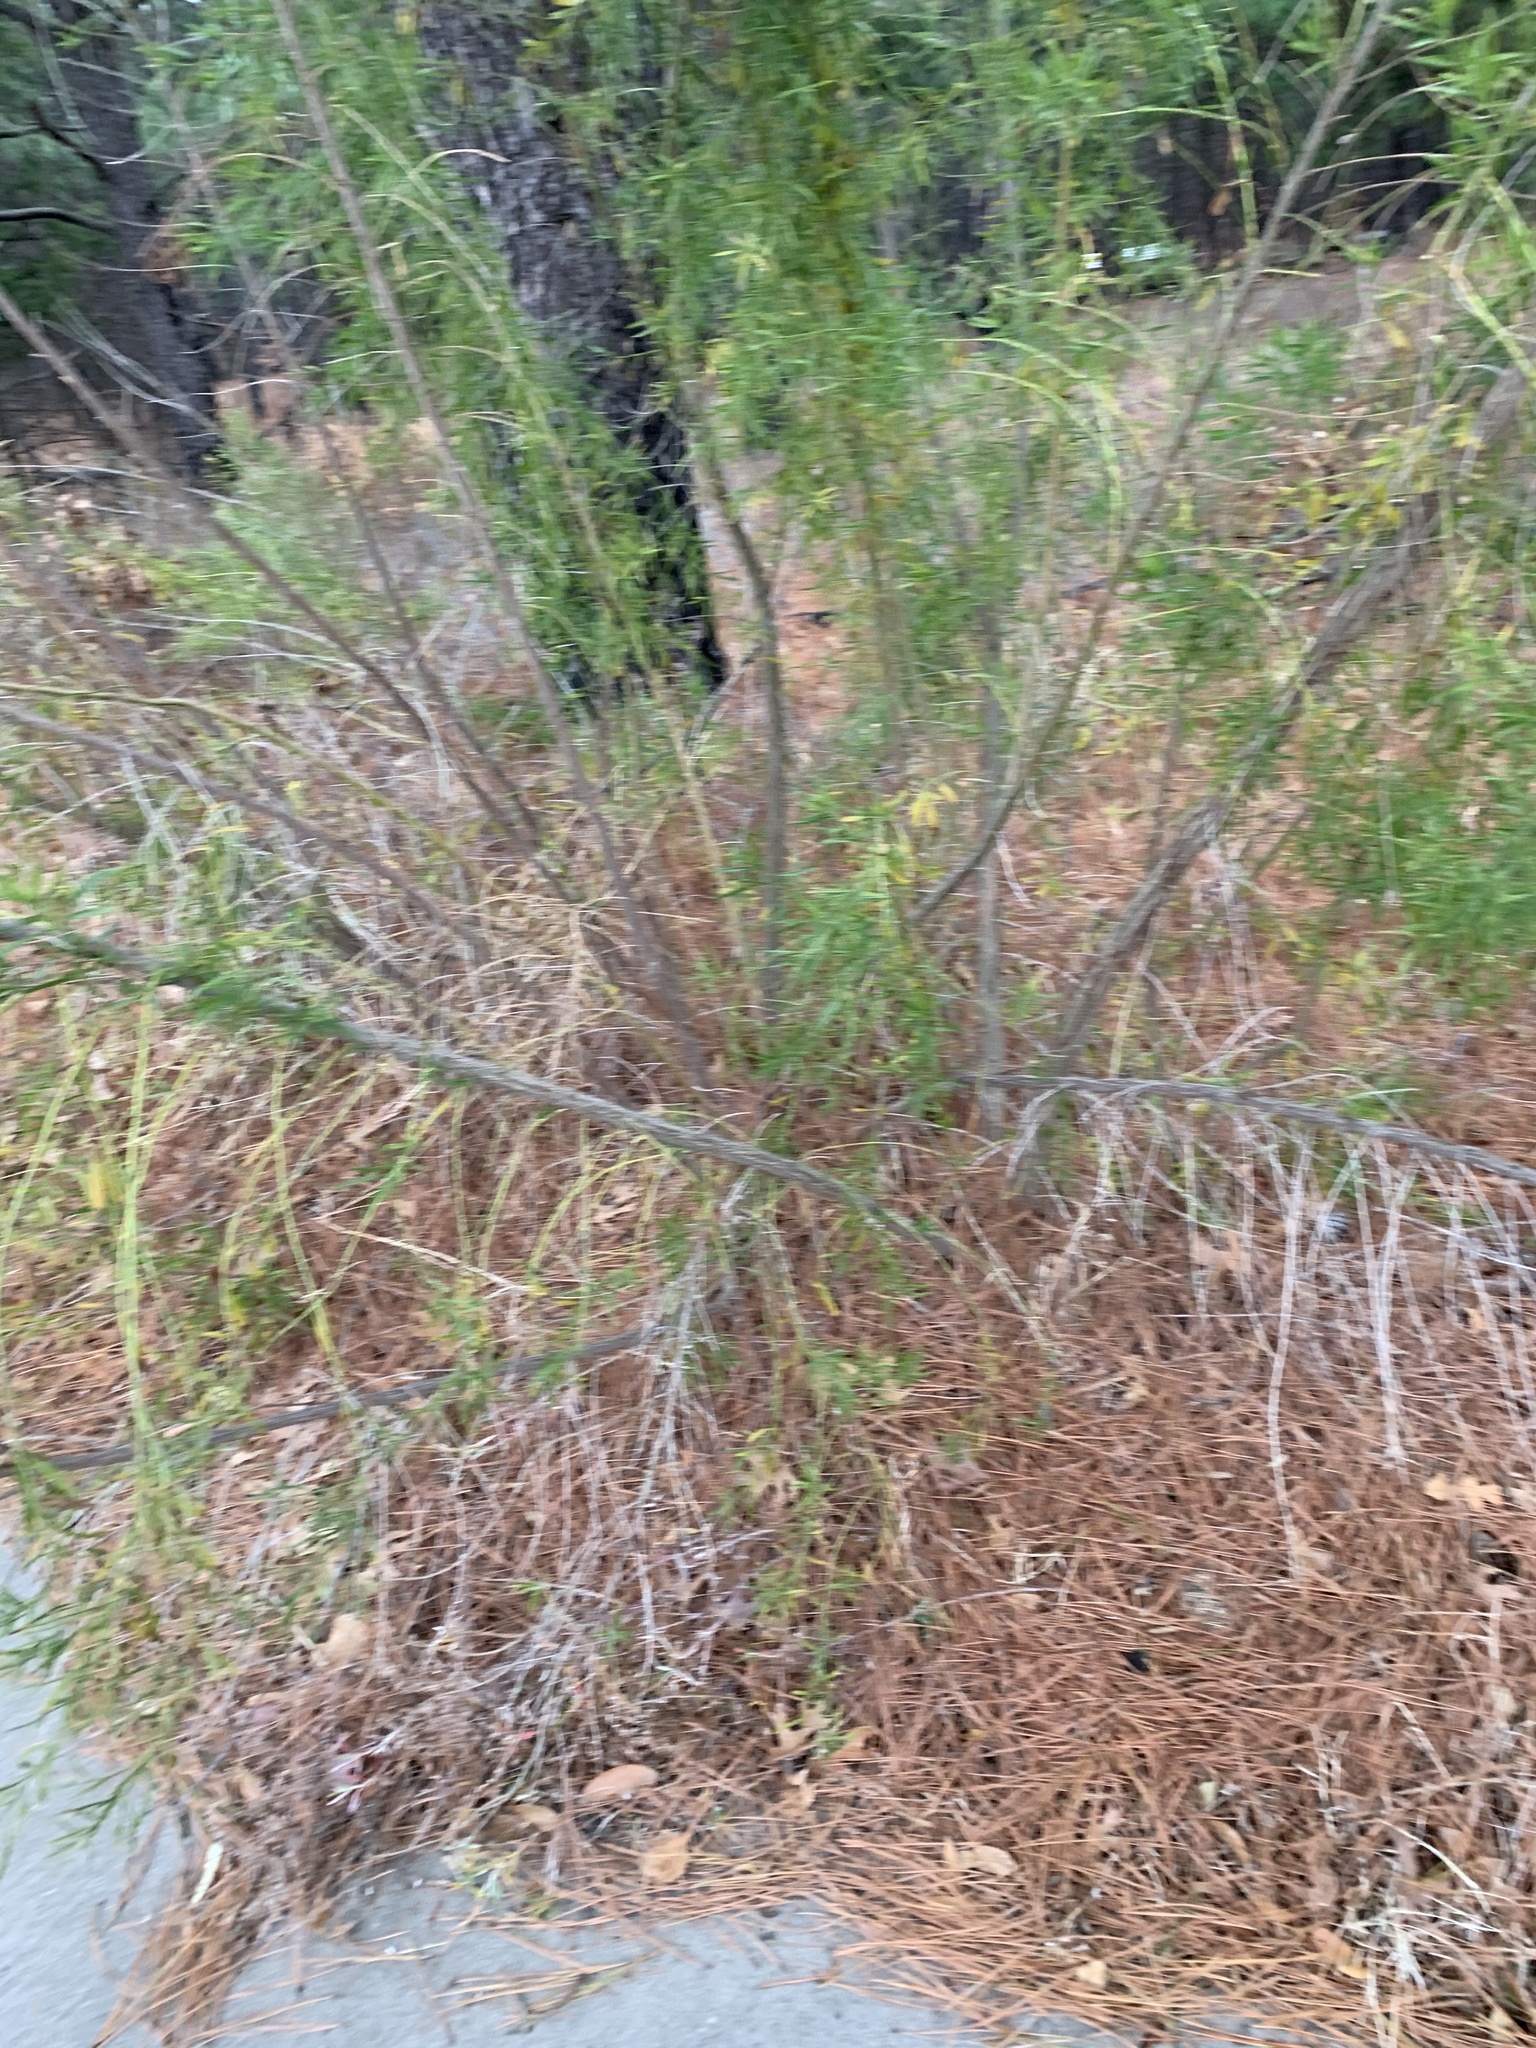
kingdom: Plantae
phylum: Tracheophyta
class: Magnoliopsida
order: Asterales
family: Asteraceae
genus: Baccharis
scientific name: Baccharis neglecta
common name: Roosevelt-weed
